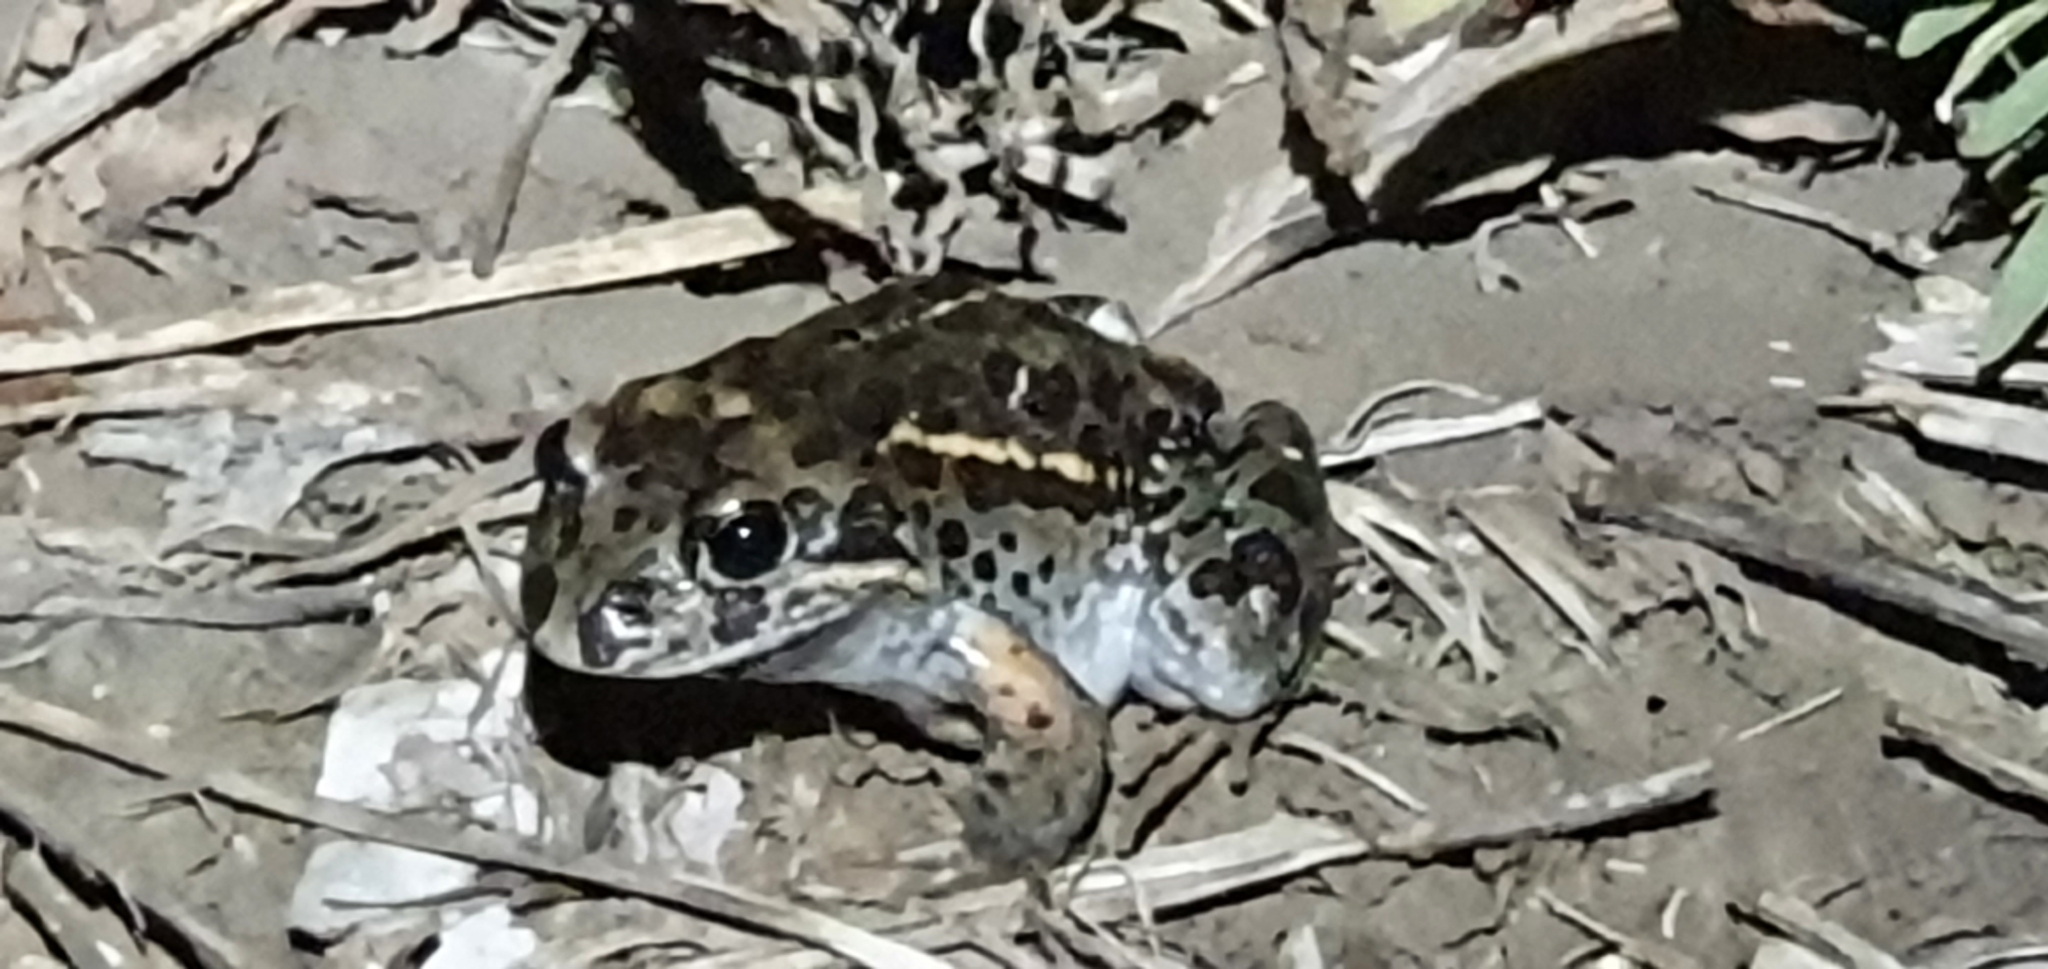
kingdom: Animalia
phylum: Chordata
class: Amphibia
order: Anura
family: Limnodynastidae
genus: Limnodynastes
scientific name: Limnodynastes salmini
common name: Salmon-striped frog
